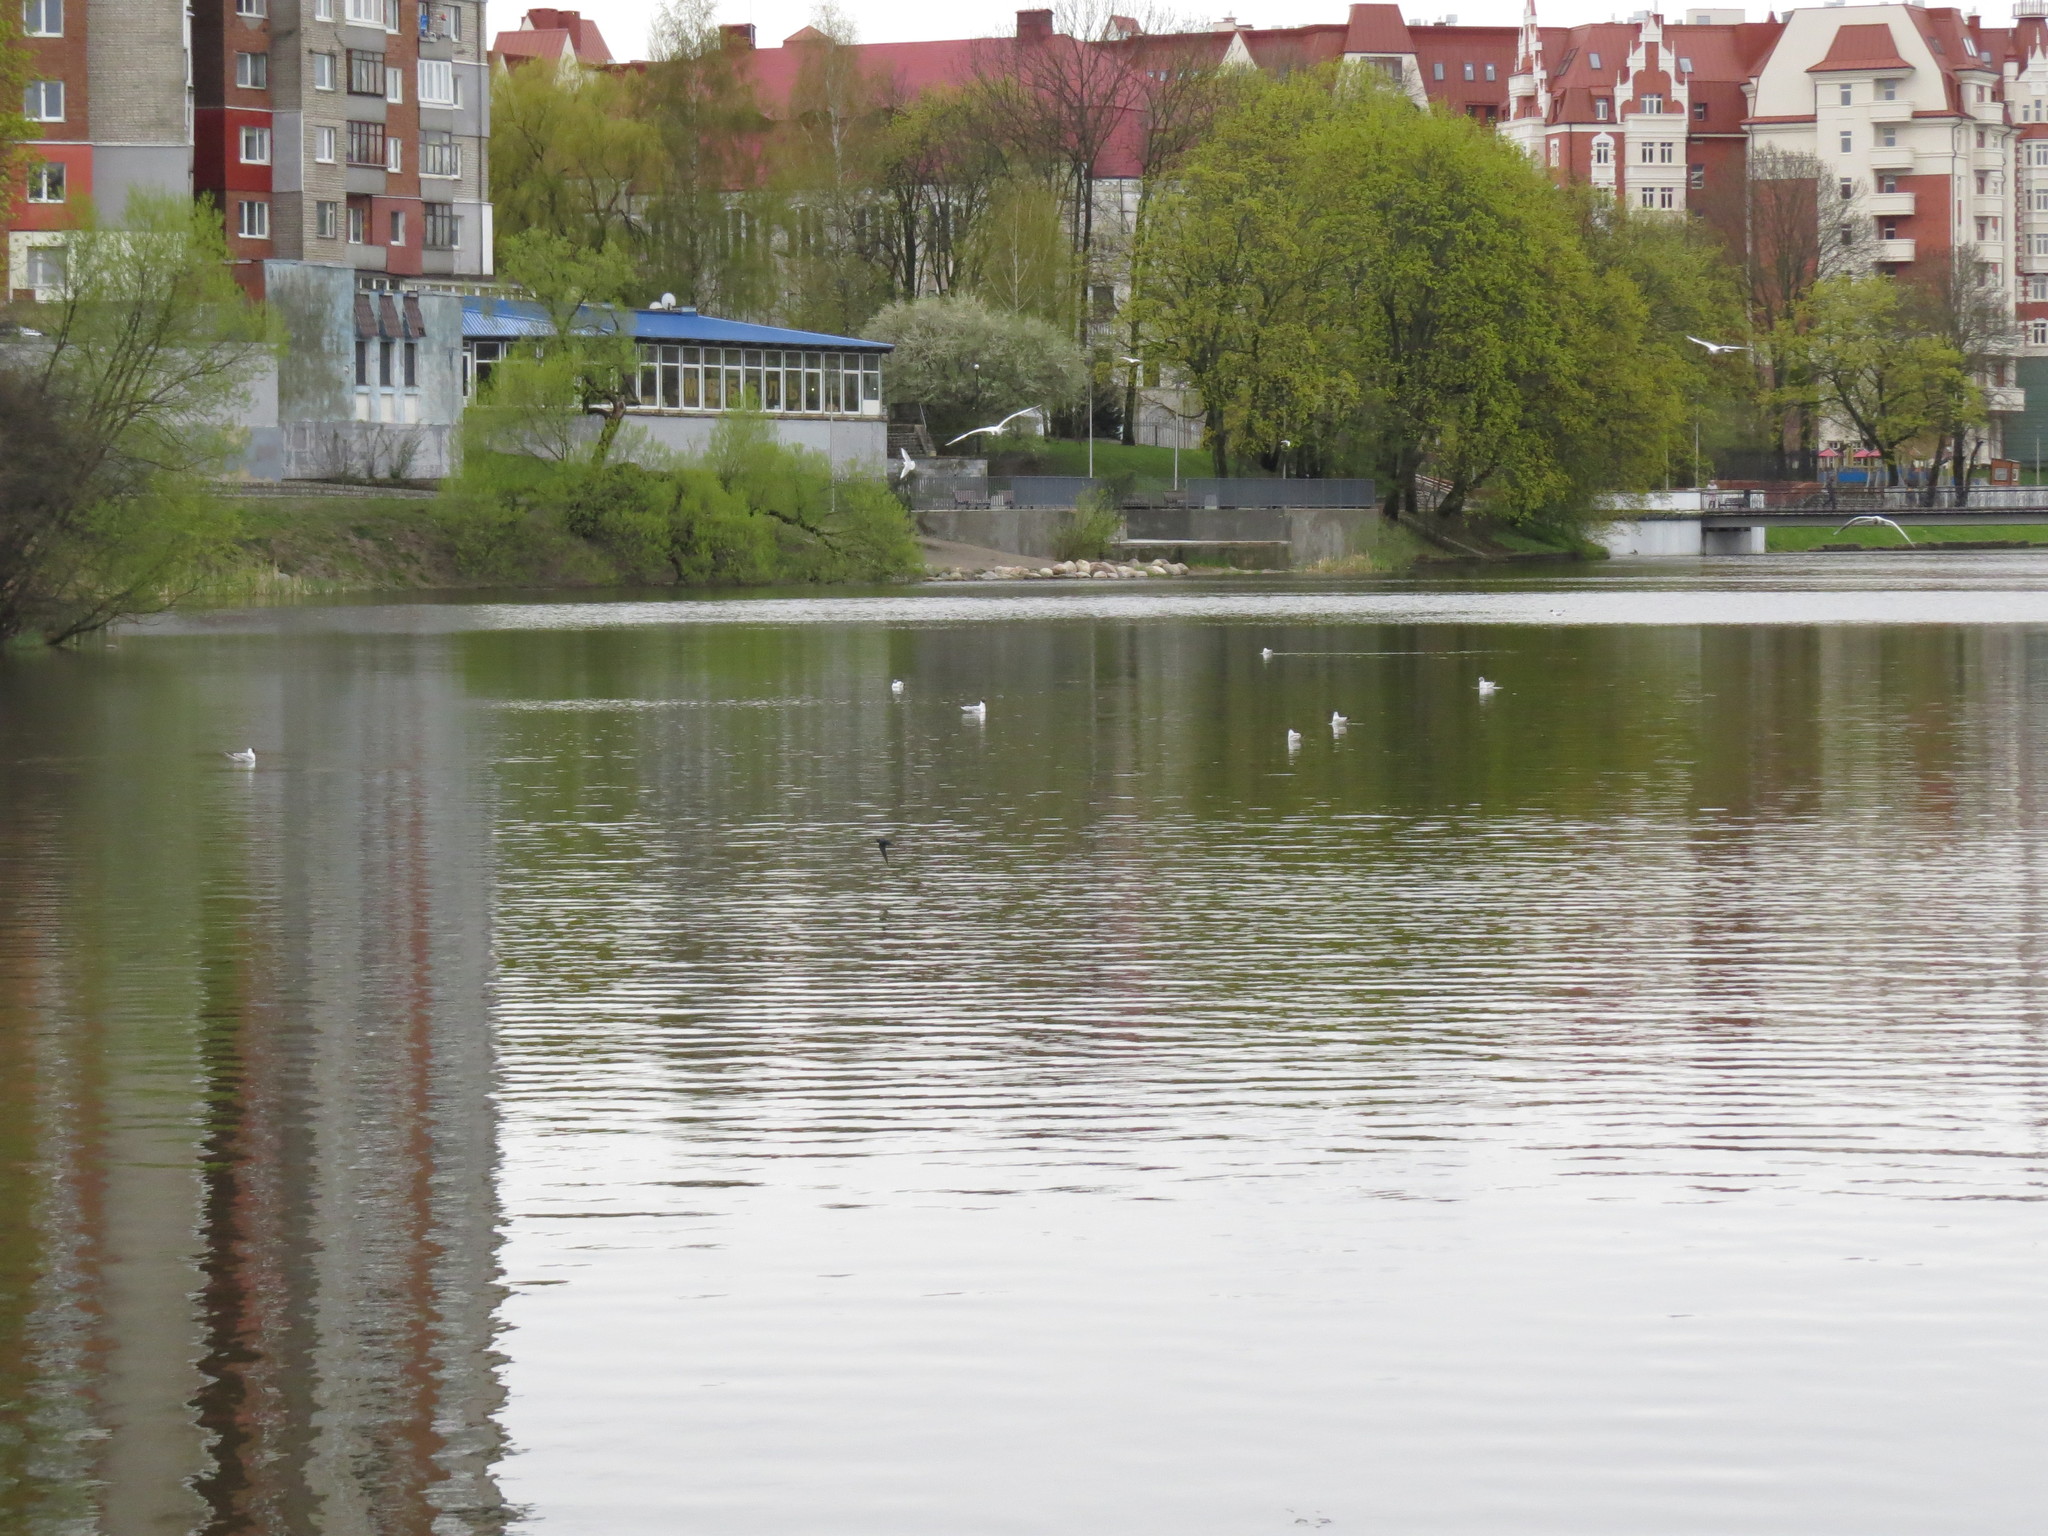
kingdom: Animalia
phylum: Chordata
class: Aves
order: Charadriiformes
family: Laridae
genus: Chroicocephalus
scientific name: Chroicocephalus ridibundus
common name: Black-headed gull
